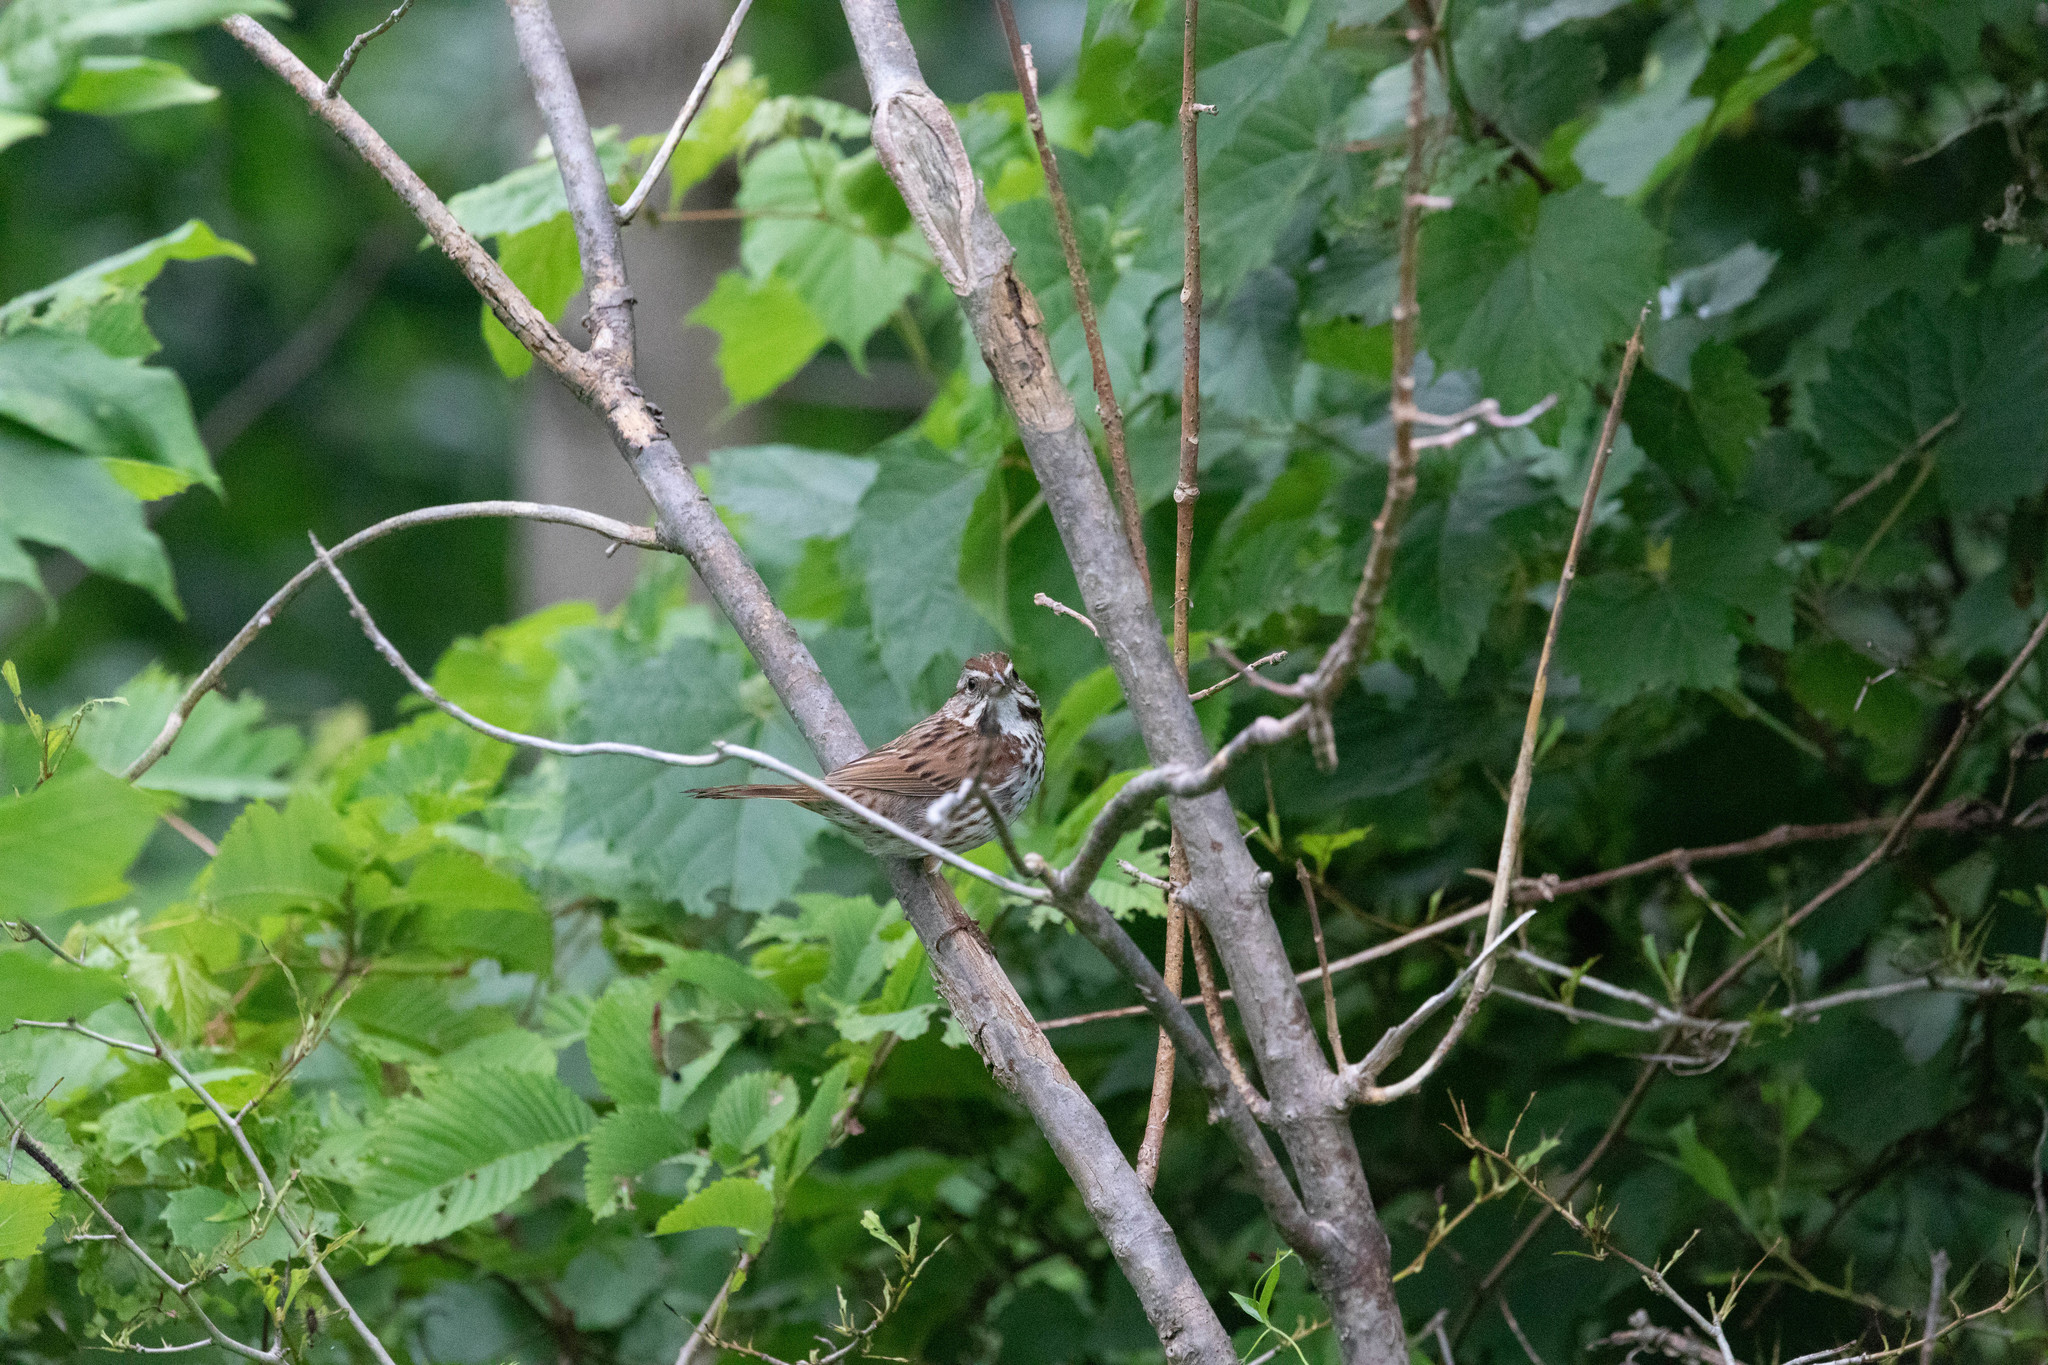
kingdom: Animalia
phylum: Chordata
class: Aves
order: Passeriformes
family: Passerellidae
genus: Melospiza
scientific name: Melospiza melodia
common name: Song sparrow
